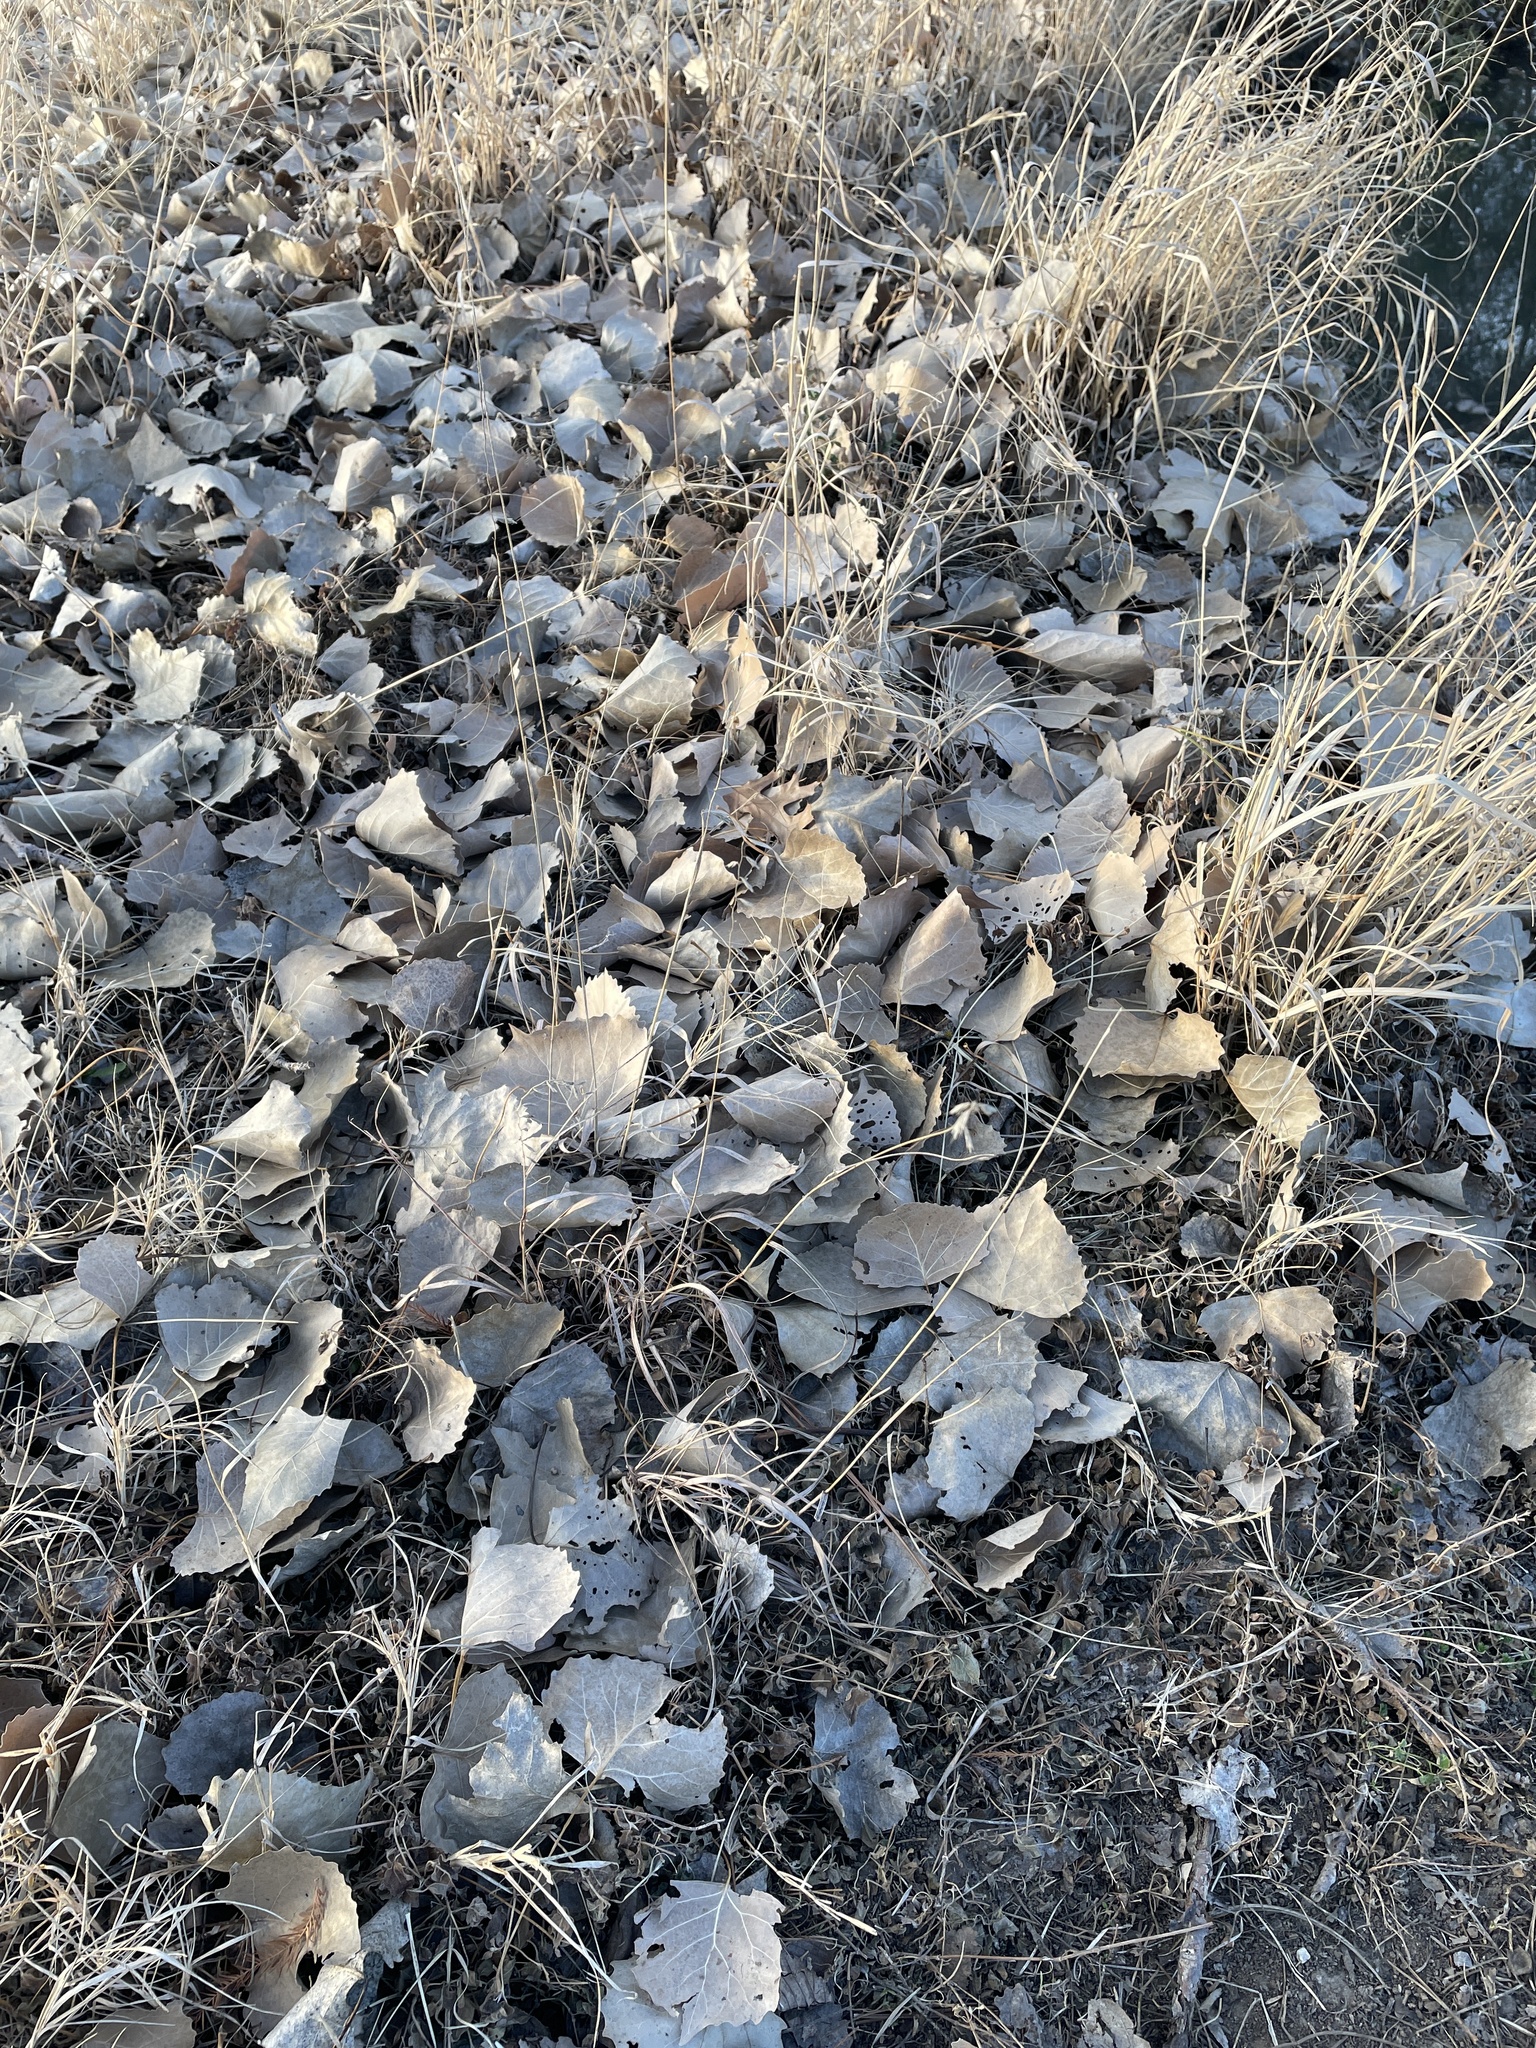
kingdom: Plantae
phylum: Tracheophyta
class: Liliopsida
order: Poales
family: Poaceae
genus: Bouteloua
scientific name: Bouteloua curtipendula
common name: Side-oats grama
